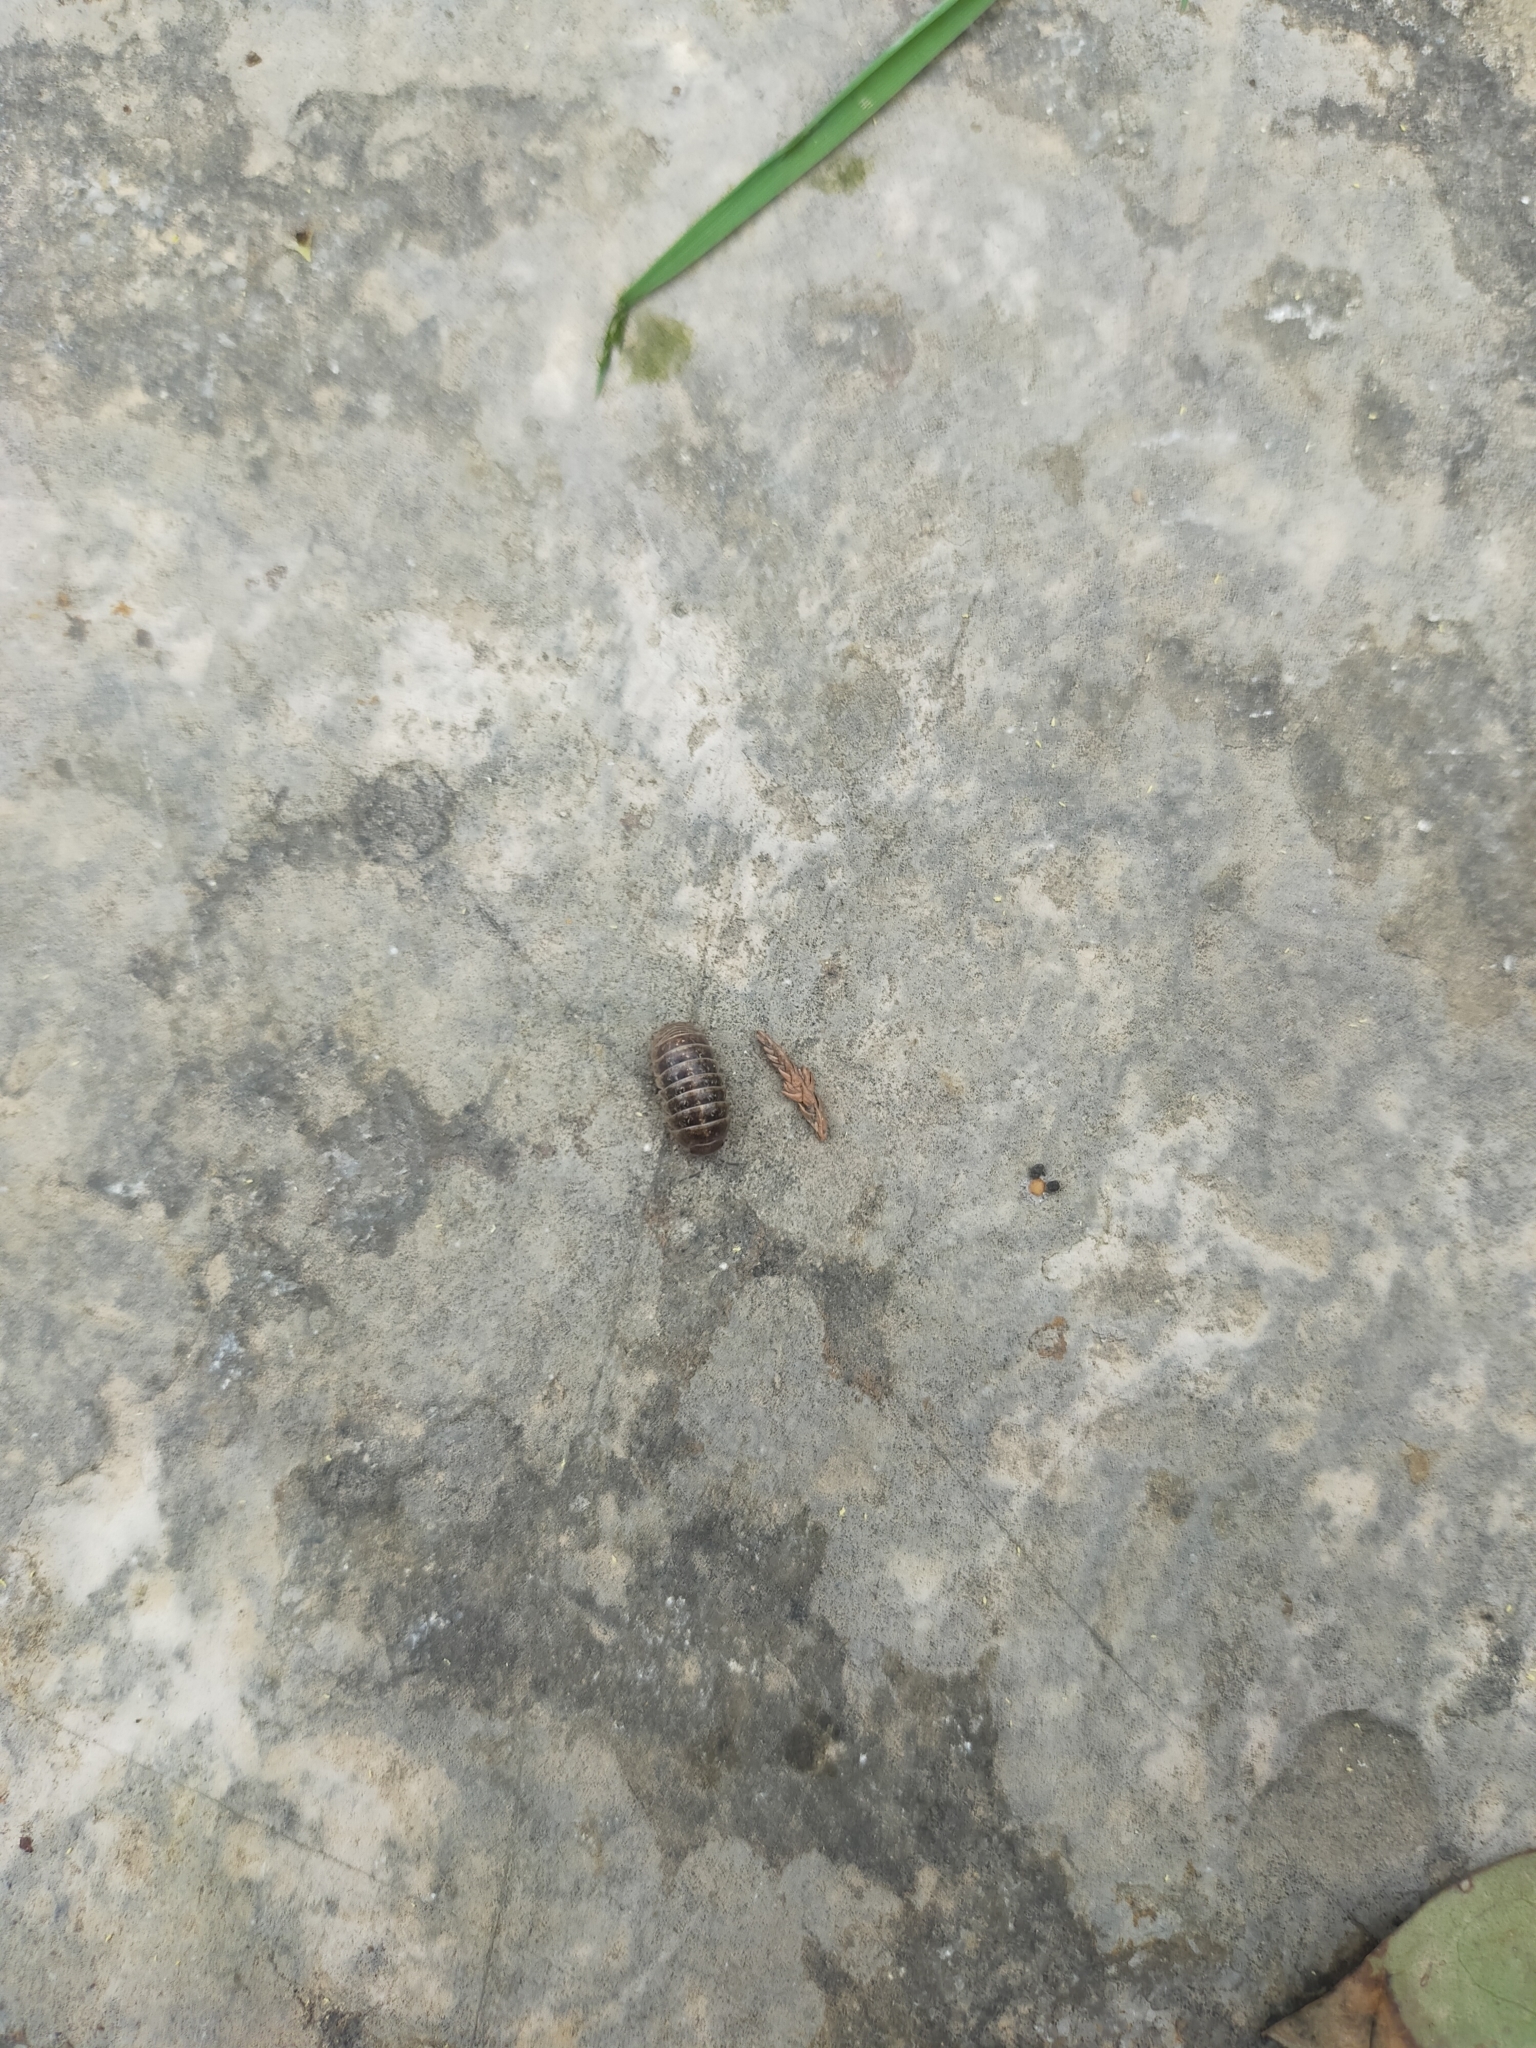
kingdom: Animalia
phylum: Arthropoda
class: Malacostraca
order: Isopoda
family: Armadillidiidae
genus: Armadillidium
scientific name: Armadillidium vulgare
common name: Common pill woodlouse
